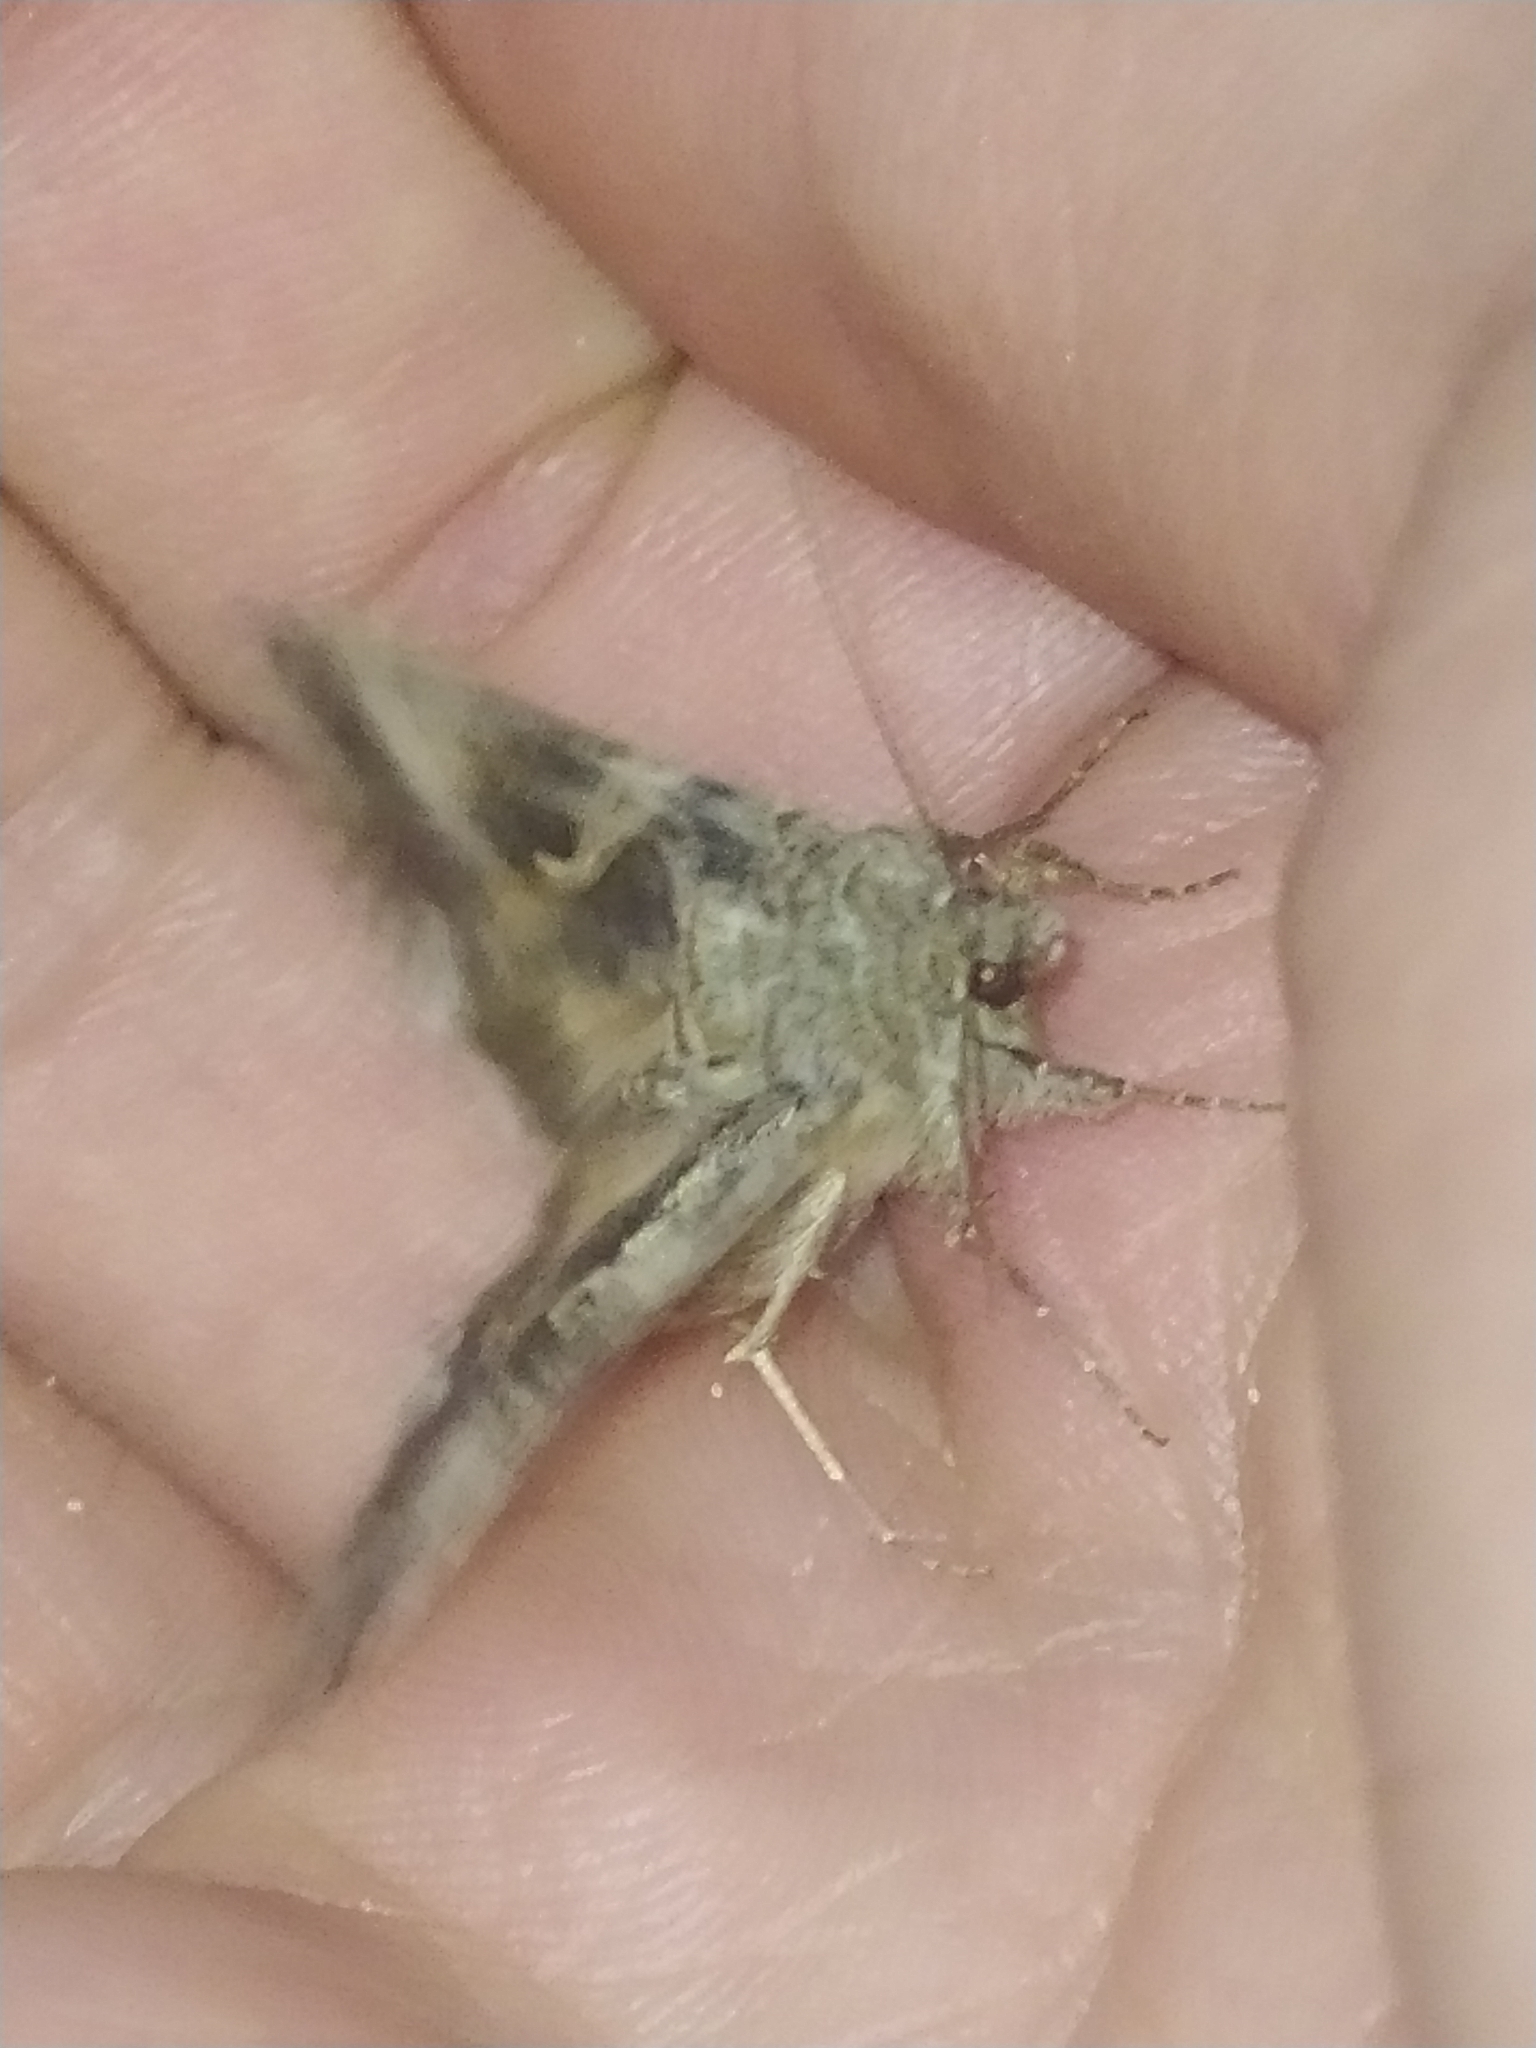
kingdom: Animalia
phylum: Arthropoda
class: Insecta
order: Lepidoptera
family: Noctuidae
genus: Autographa
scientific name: Autographa gamma
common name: Silver y
